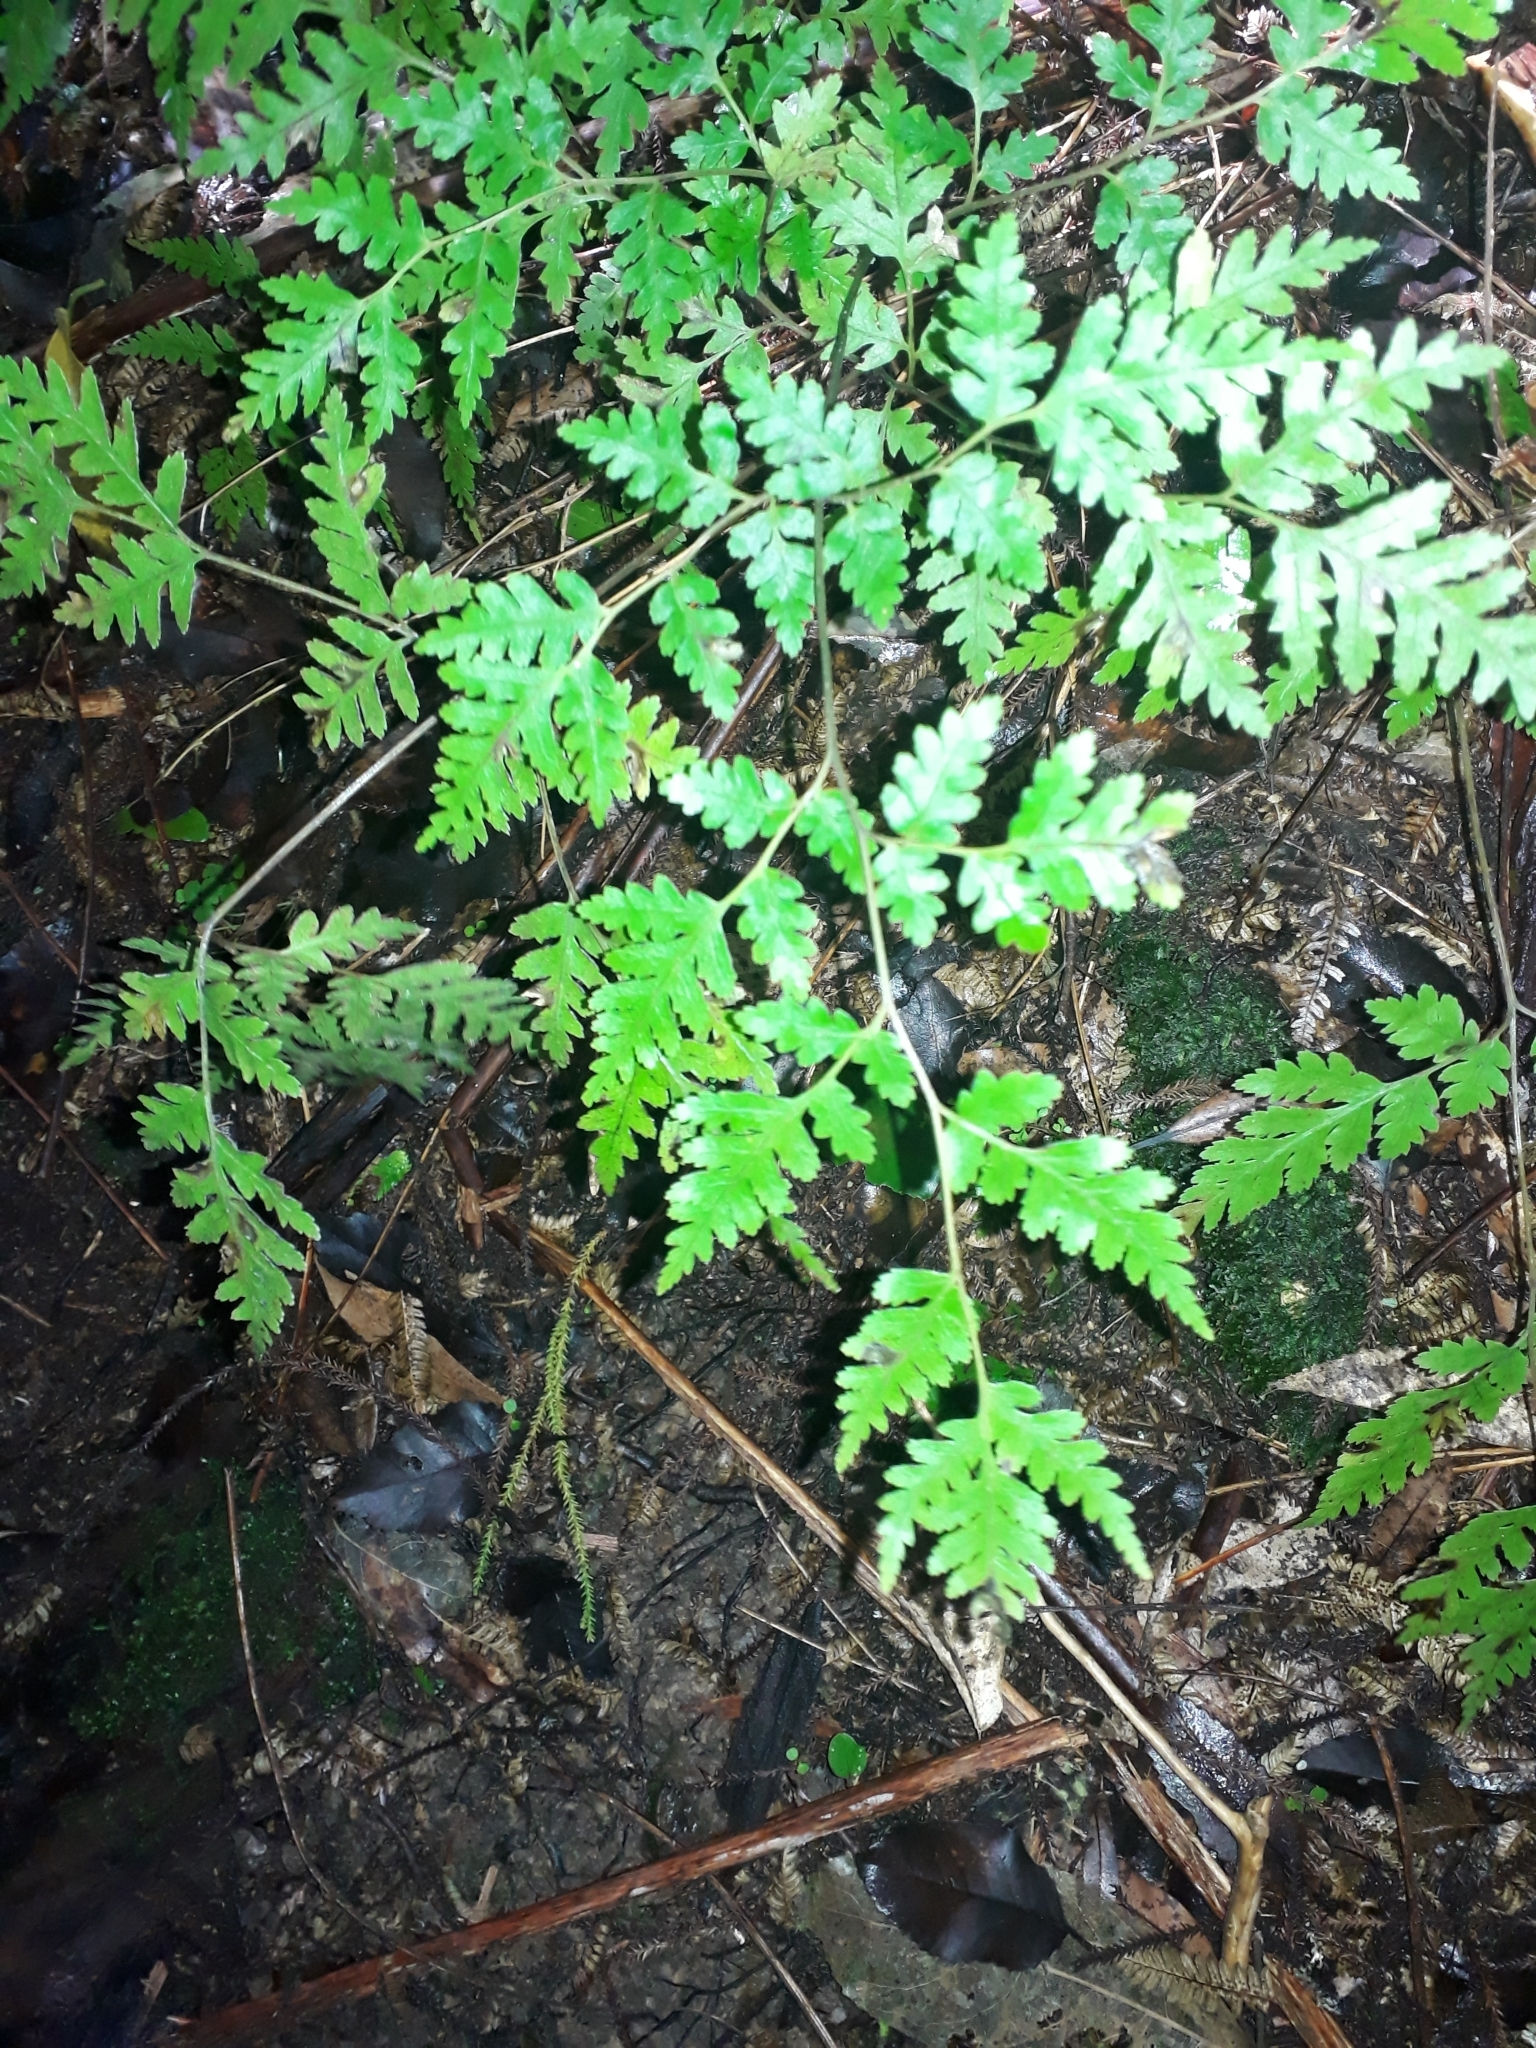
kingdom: Plantae
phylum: Tracheophyta
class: Polypodiopsida
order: Polypodiales
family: Pteridaceae
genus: Pteris
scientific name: Pteris macilenta
